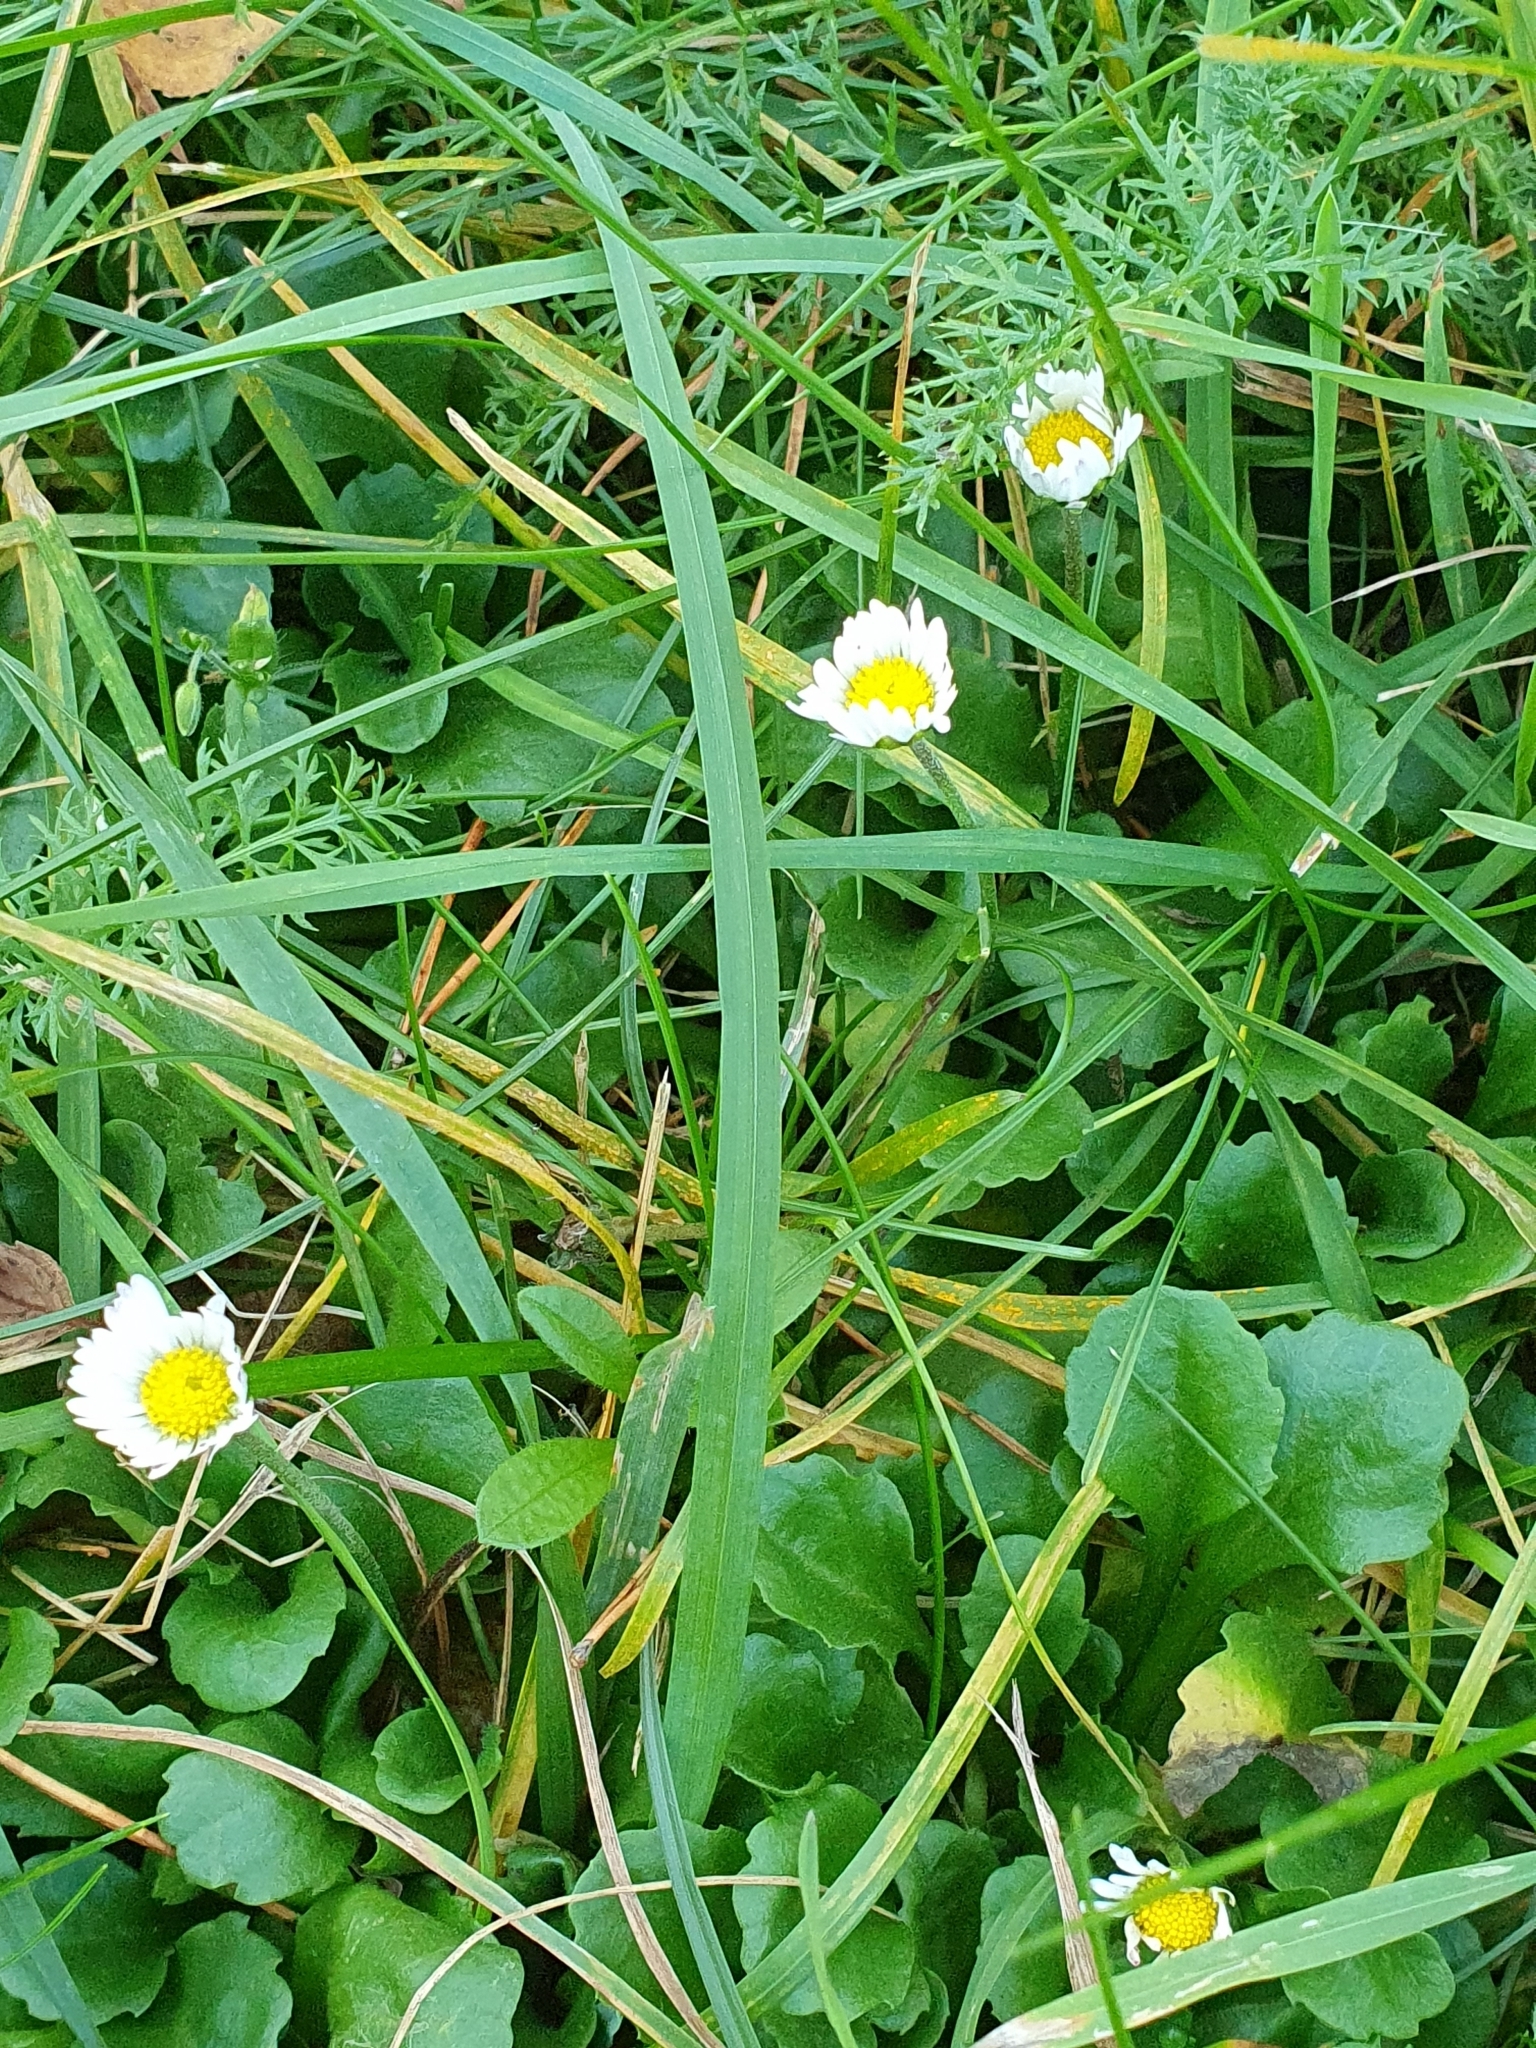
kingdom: Plantae
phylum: Tracheophyta
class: Magnoliopsida
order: Asterales
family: Asteraceae
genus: Bellis
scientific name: Bellis perennis
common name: Lawndaisy
